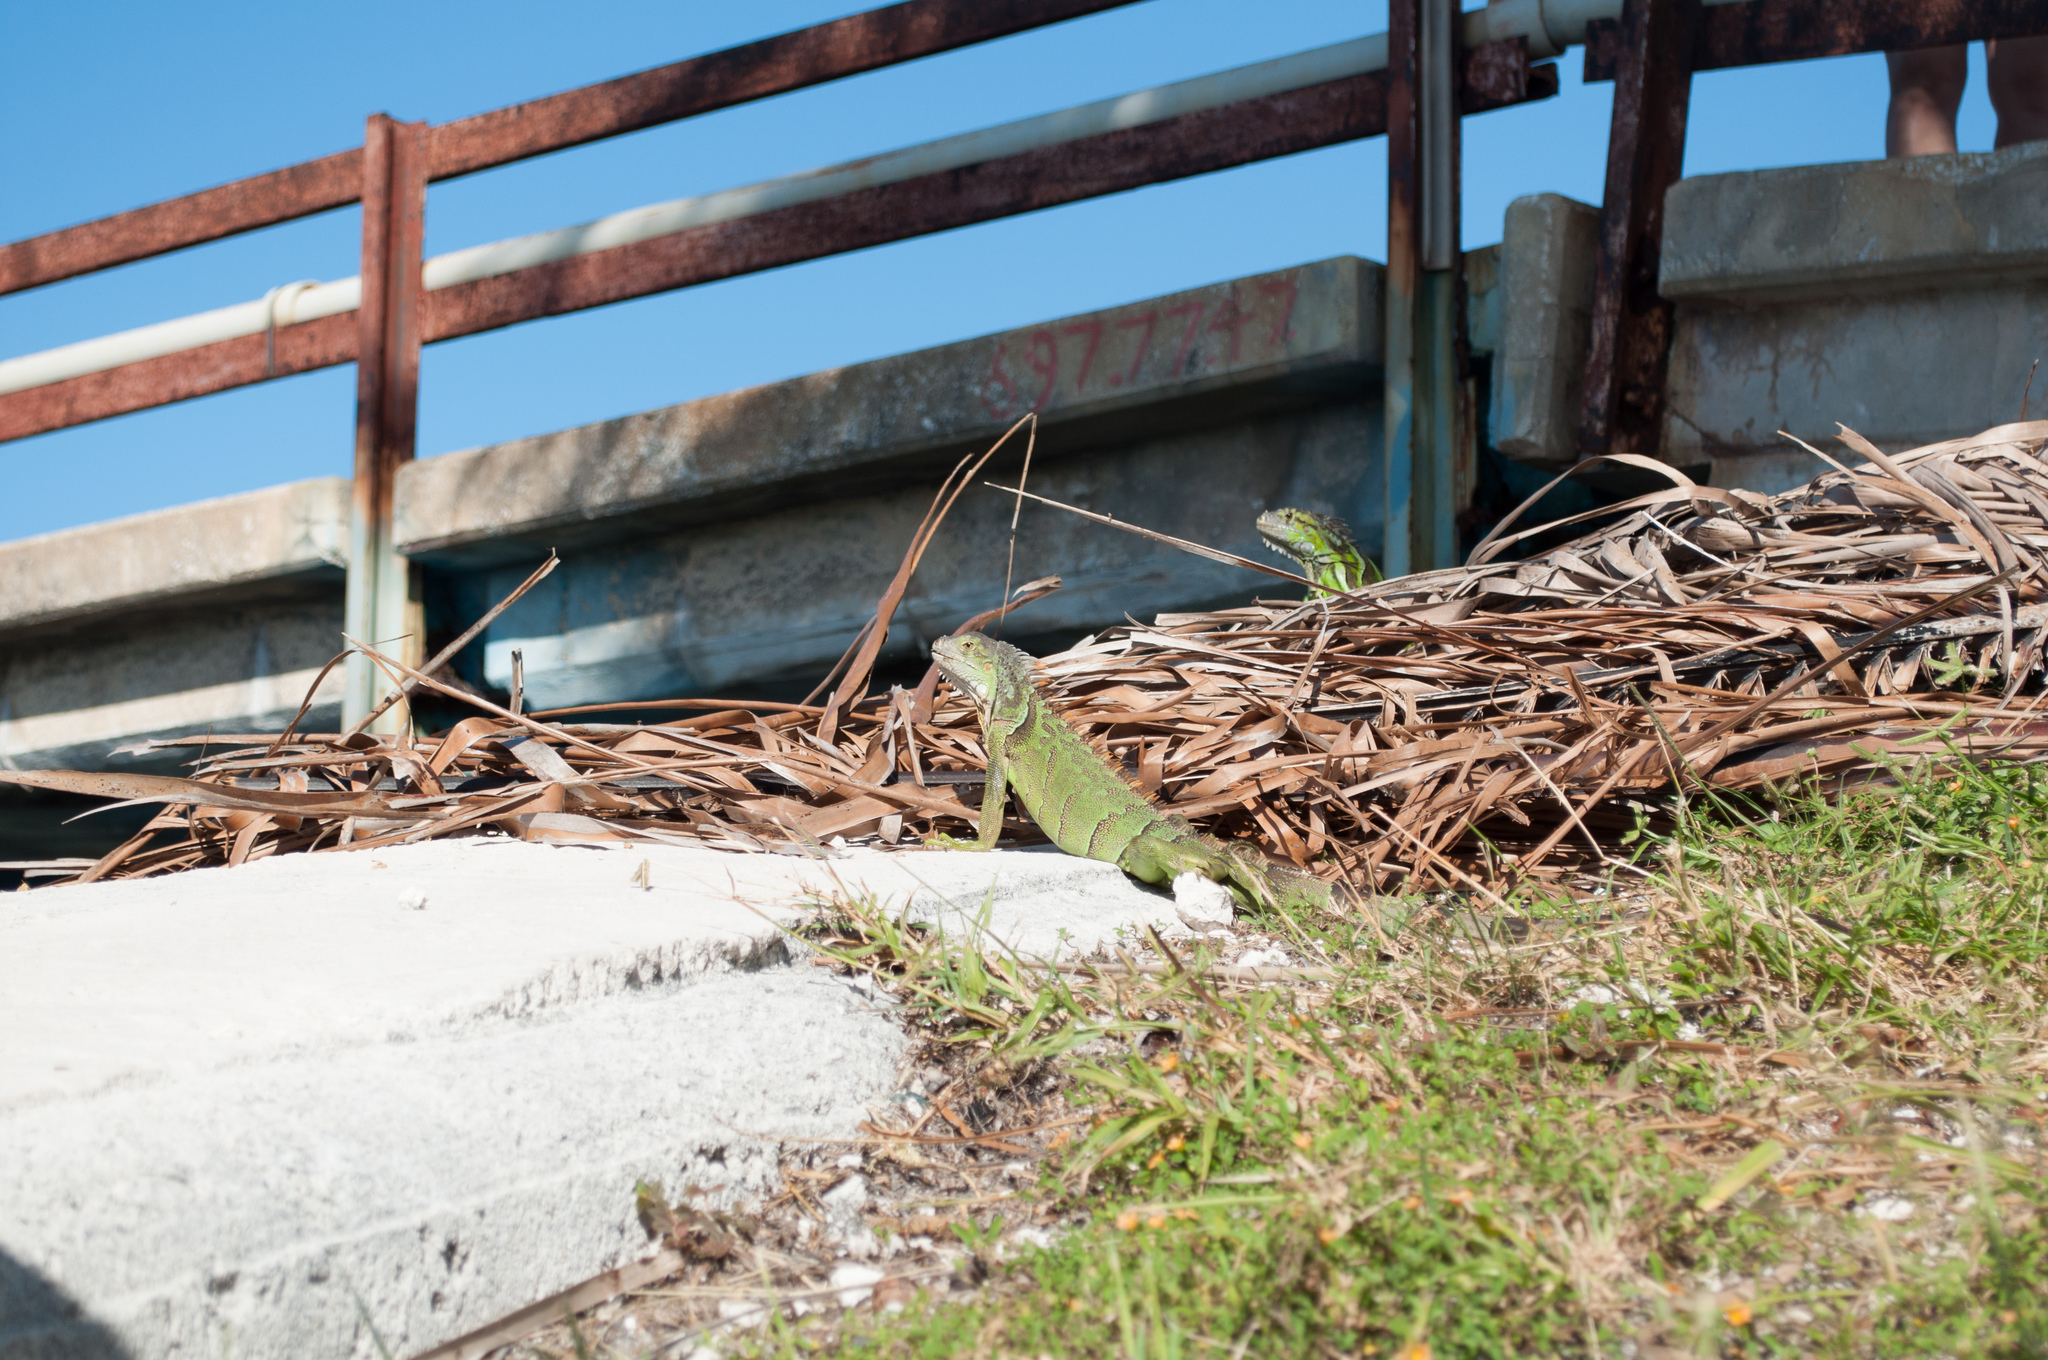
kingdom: Animalia
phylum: Chordata
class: Squamata
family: Iguanidae
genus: Iguana
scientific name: Iguana iguana
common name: Green iguana
